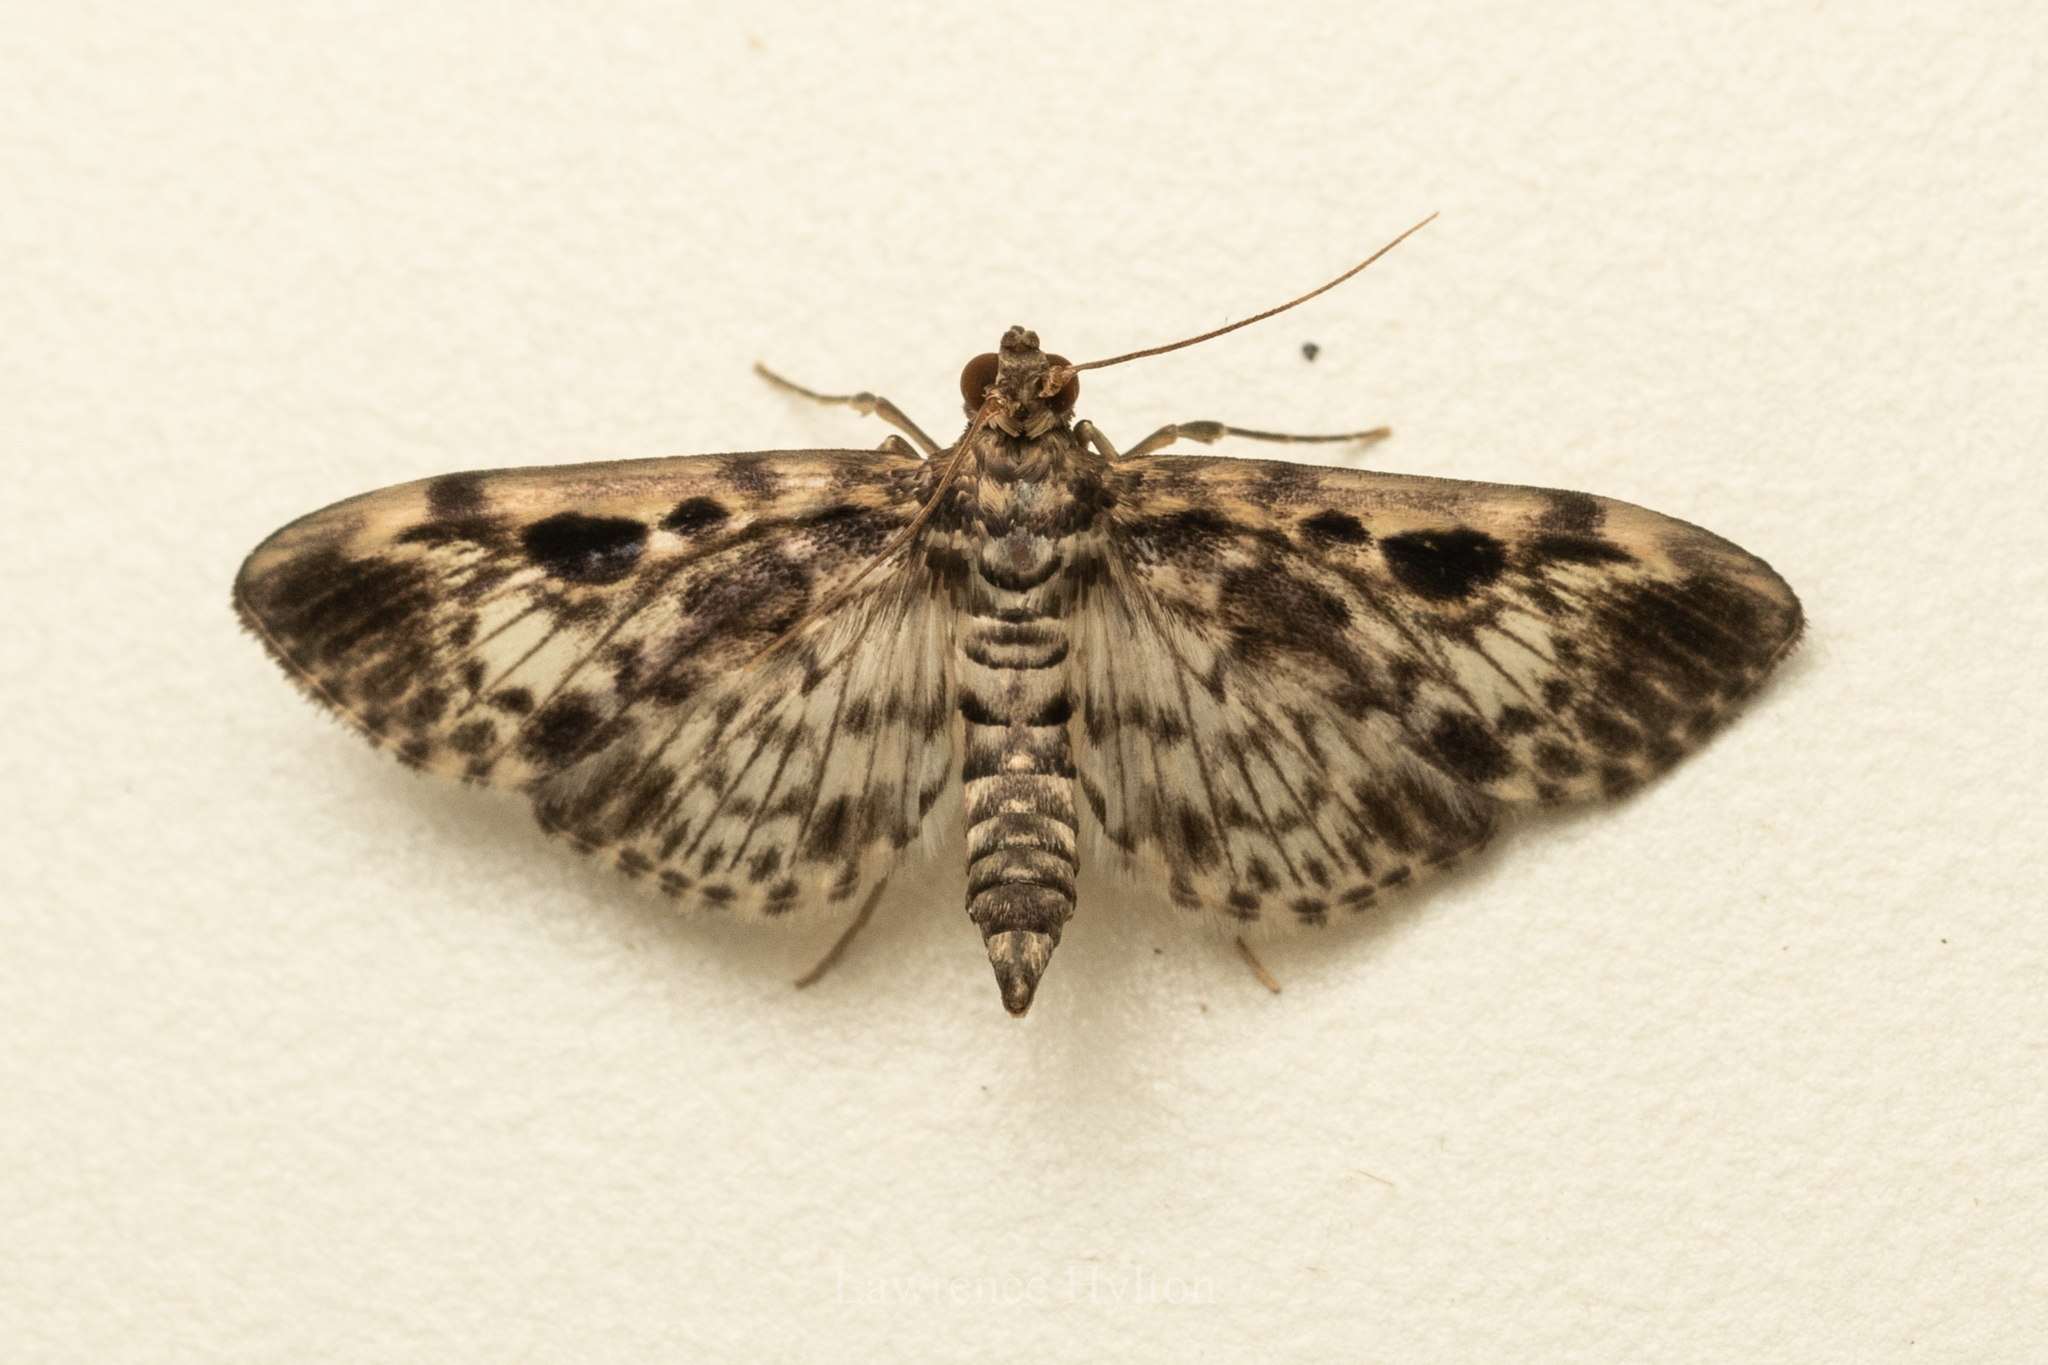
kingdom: Animalia
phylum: Arthropoda
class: Insecta
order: Lepidoptera
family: Crambidae
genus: Rhimphaliodes
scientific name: Rhimphaliodes macrostigma
